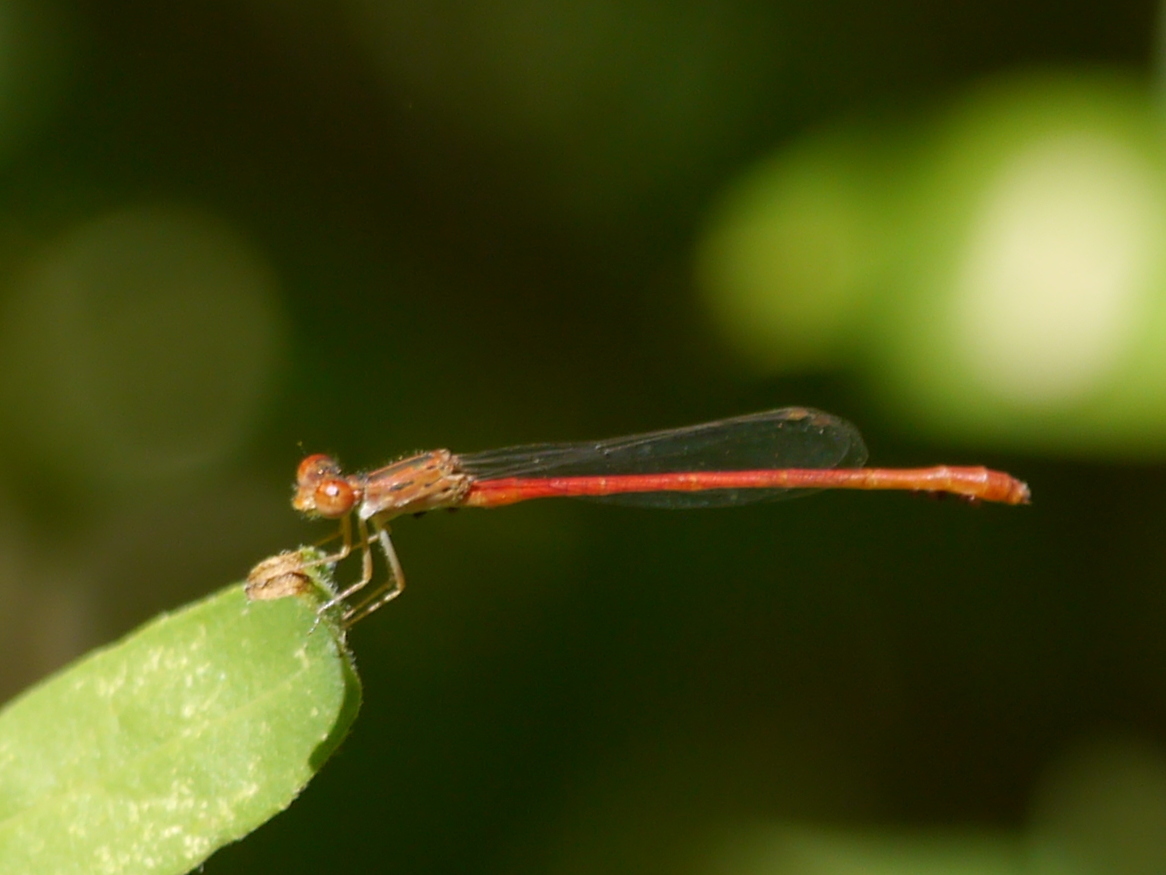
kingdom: Animalia
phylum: Arthropoda
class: Insecta
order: Odonata
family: Coenagrionidae
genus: Telebasis
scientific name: Telebasis salva
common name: Desert firetail
